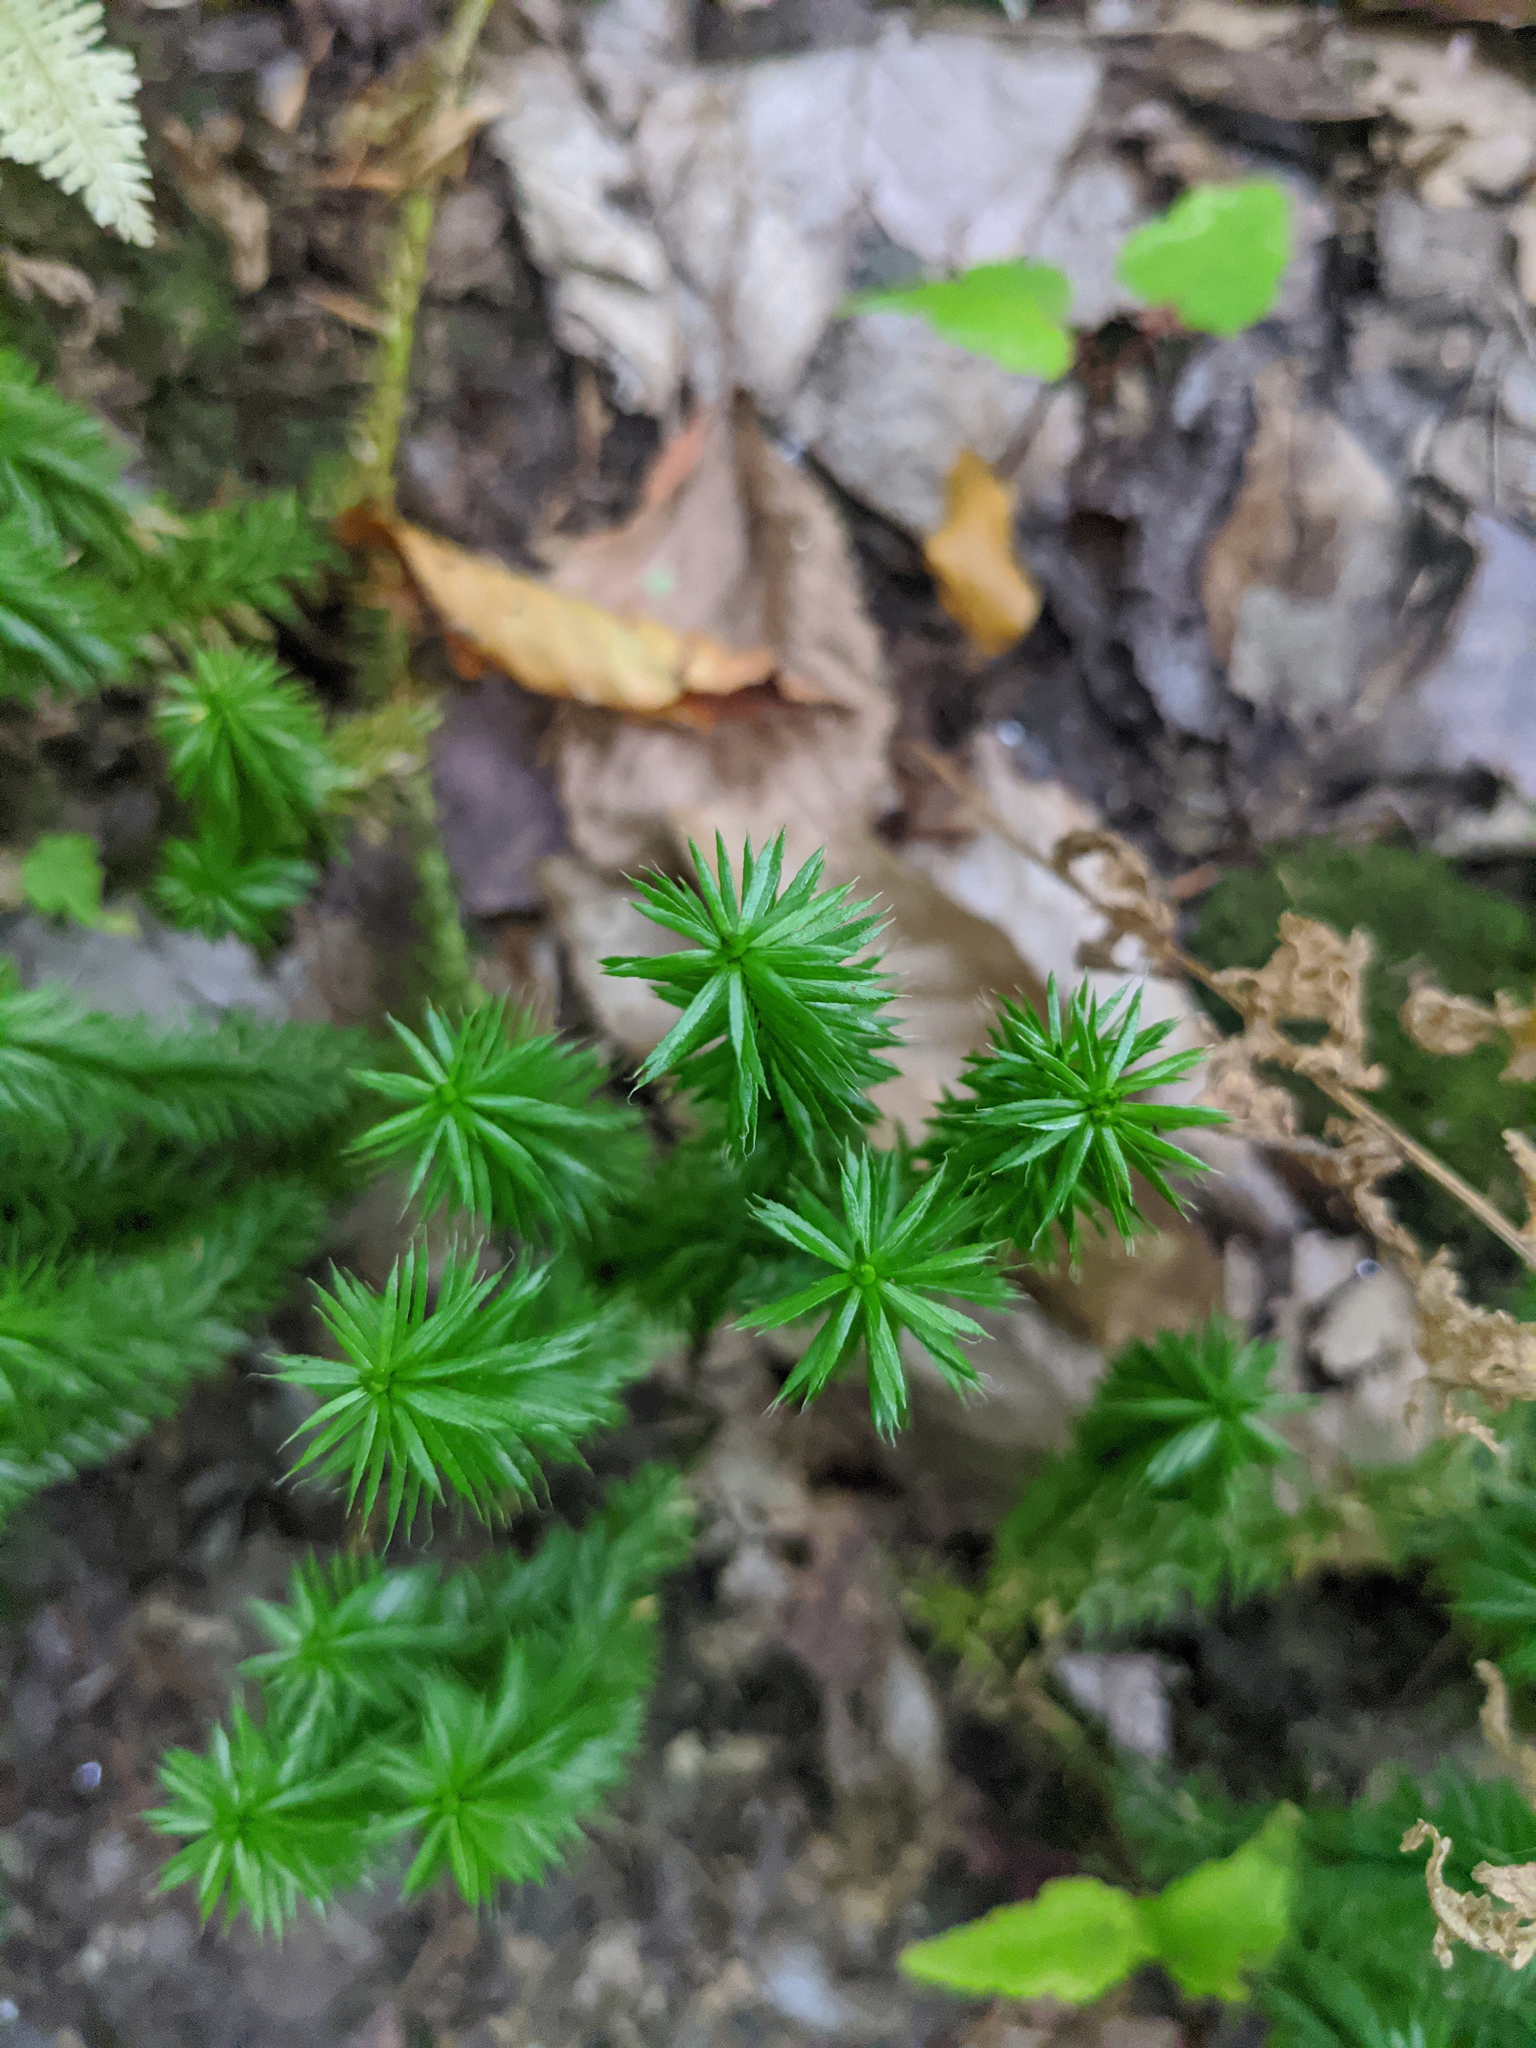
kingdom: Plantae
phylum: Tracheophyta
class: Lycopodiopsida
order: Lycopodiales
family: Lycopodiaceae
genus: Spinulum
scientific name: Spinulum annotinum
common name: Interrupted club-moss
